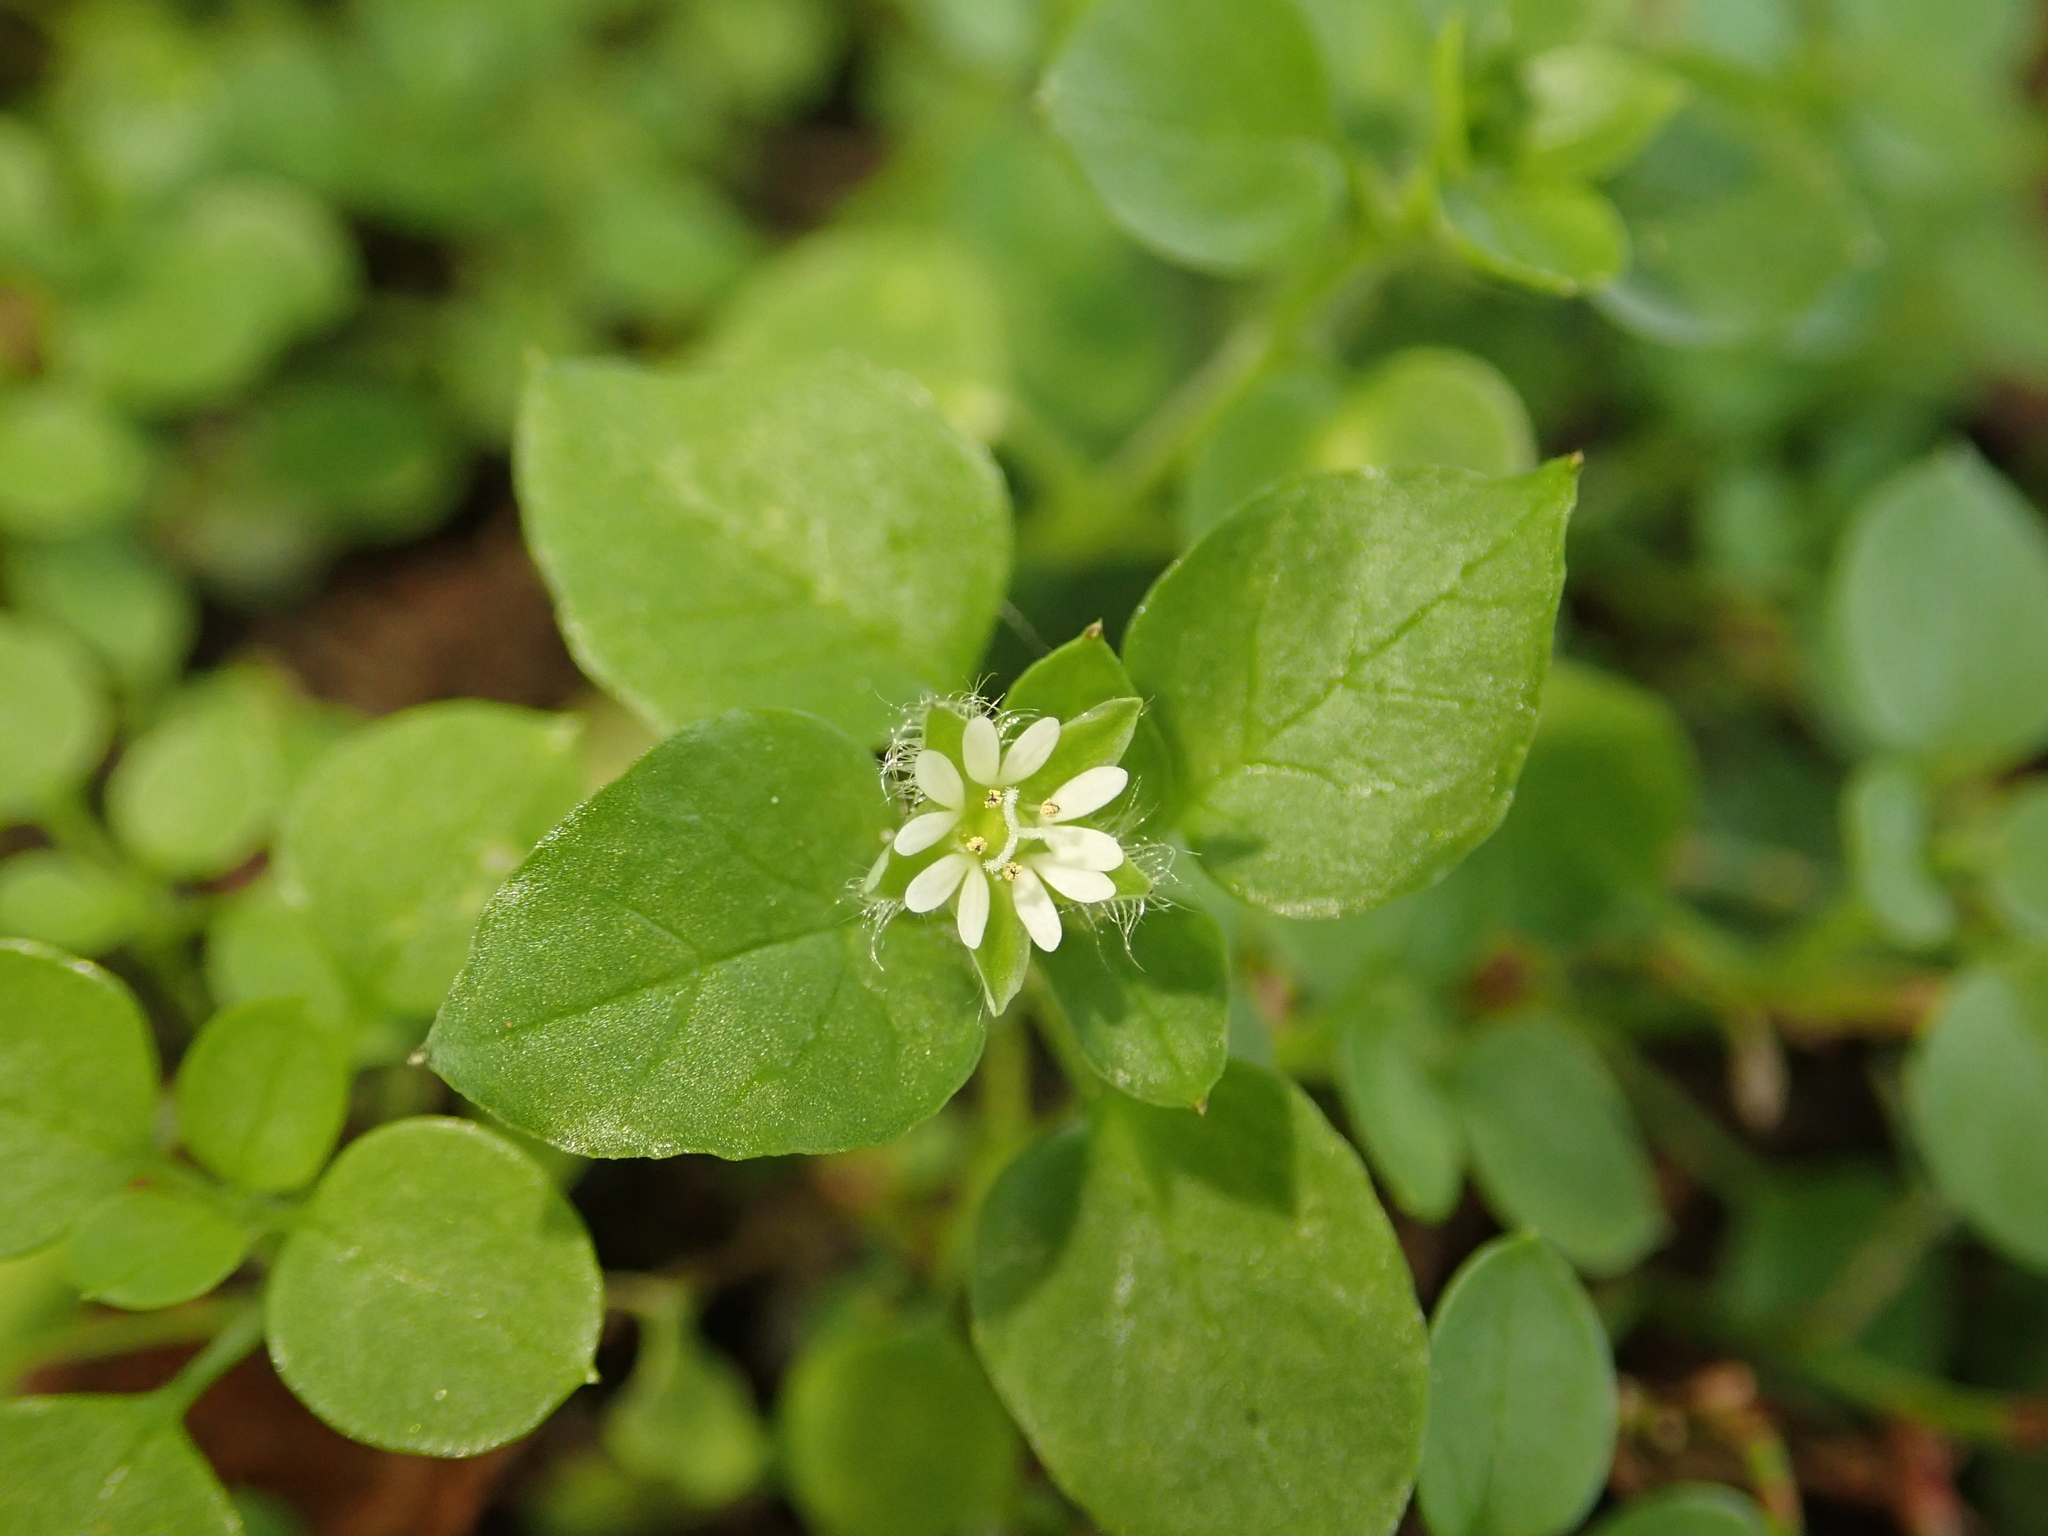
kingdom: Plantae
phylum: Tracheophyta
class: Magnoliopsida
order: Caryophyllales
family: Caryophyllaceae
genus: Stellaria
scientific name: Stellaria media
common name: Common chickweed
